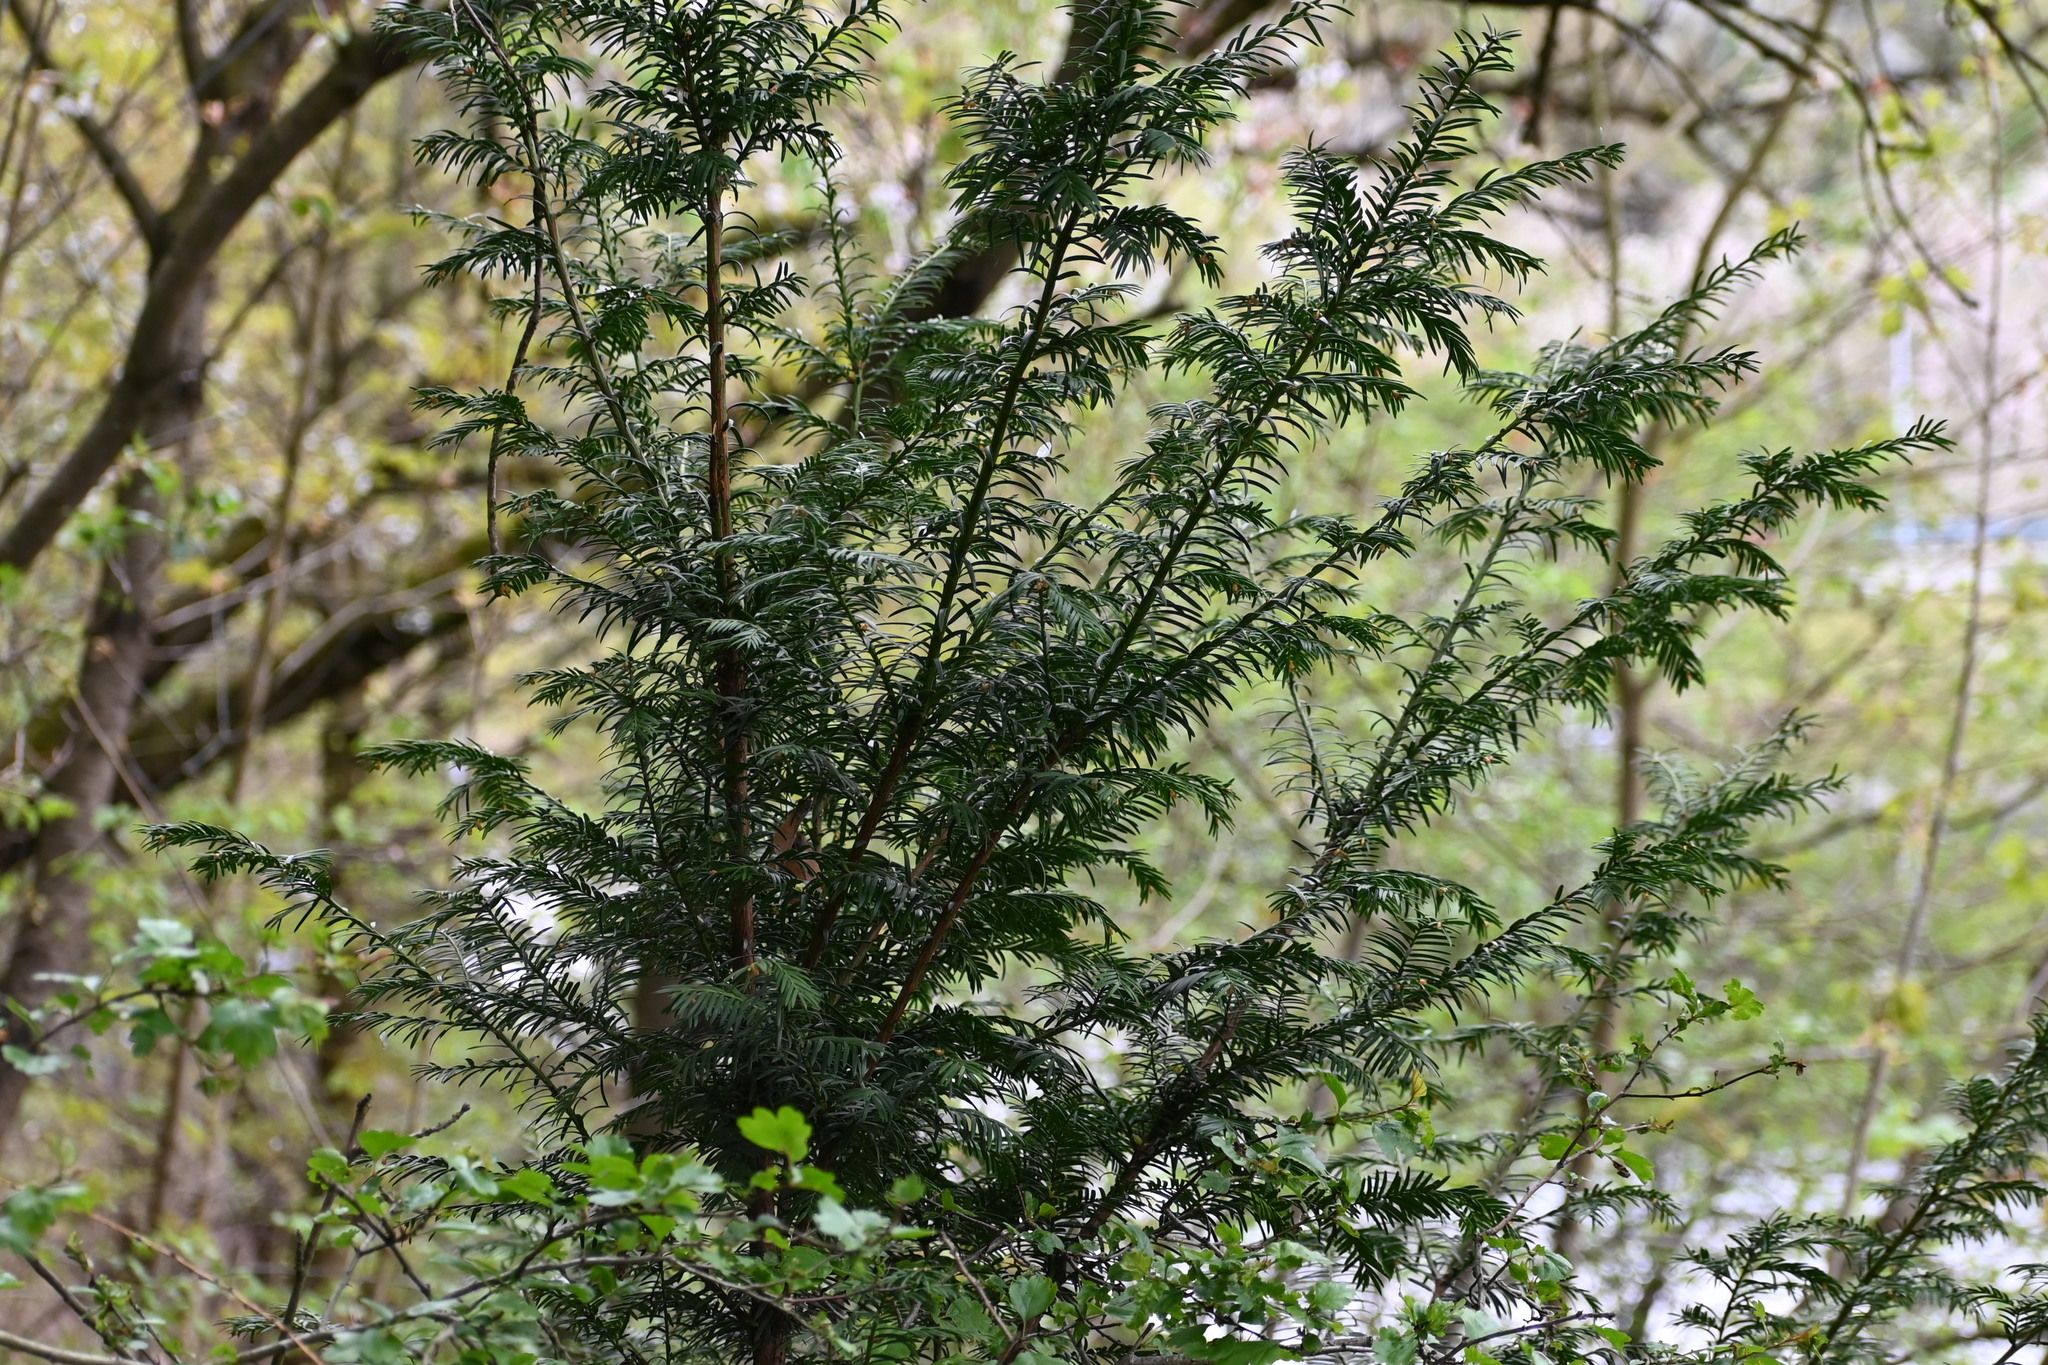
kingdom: Plantae
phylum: Tracheophyta
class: Pinopsida
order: Pinales
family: Taxaceae
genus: Taxus
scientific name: Taxus baccata
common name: Yew
